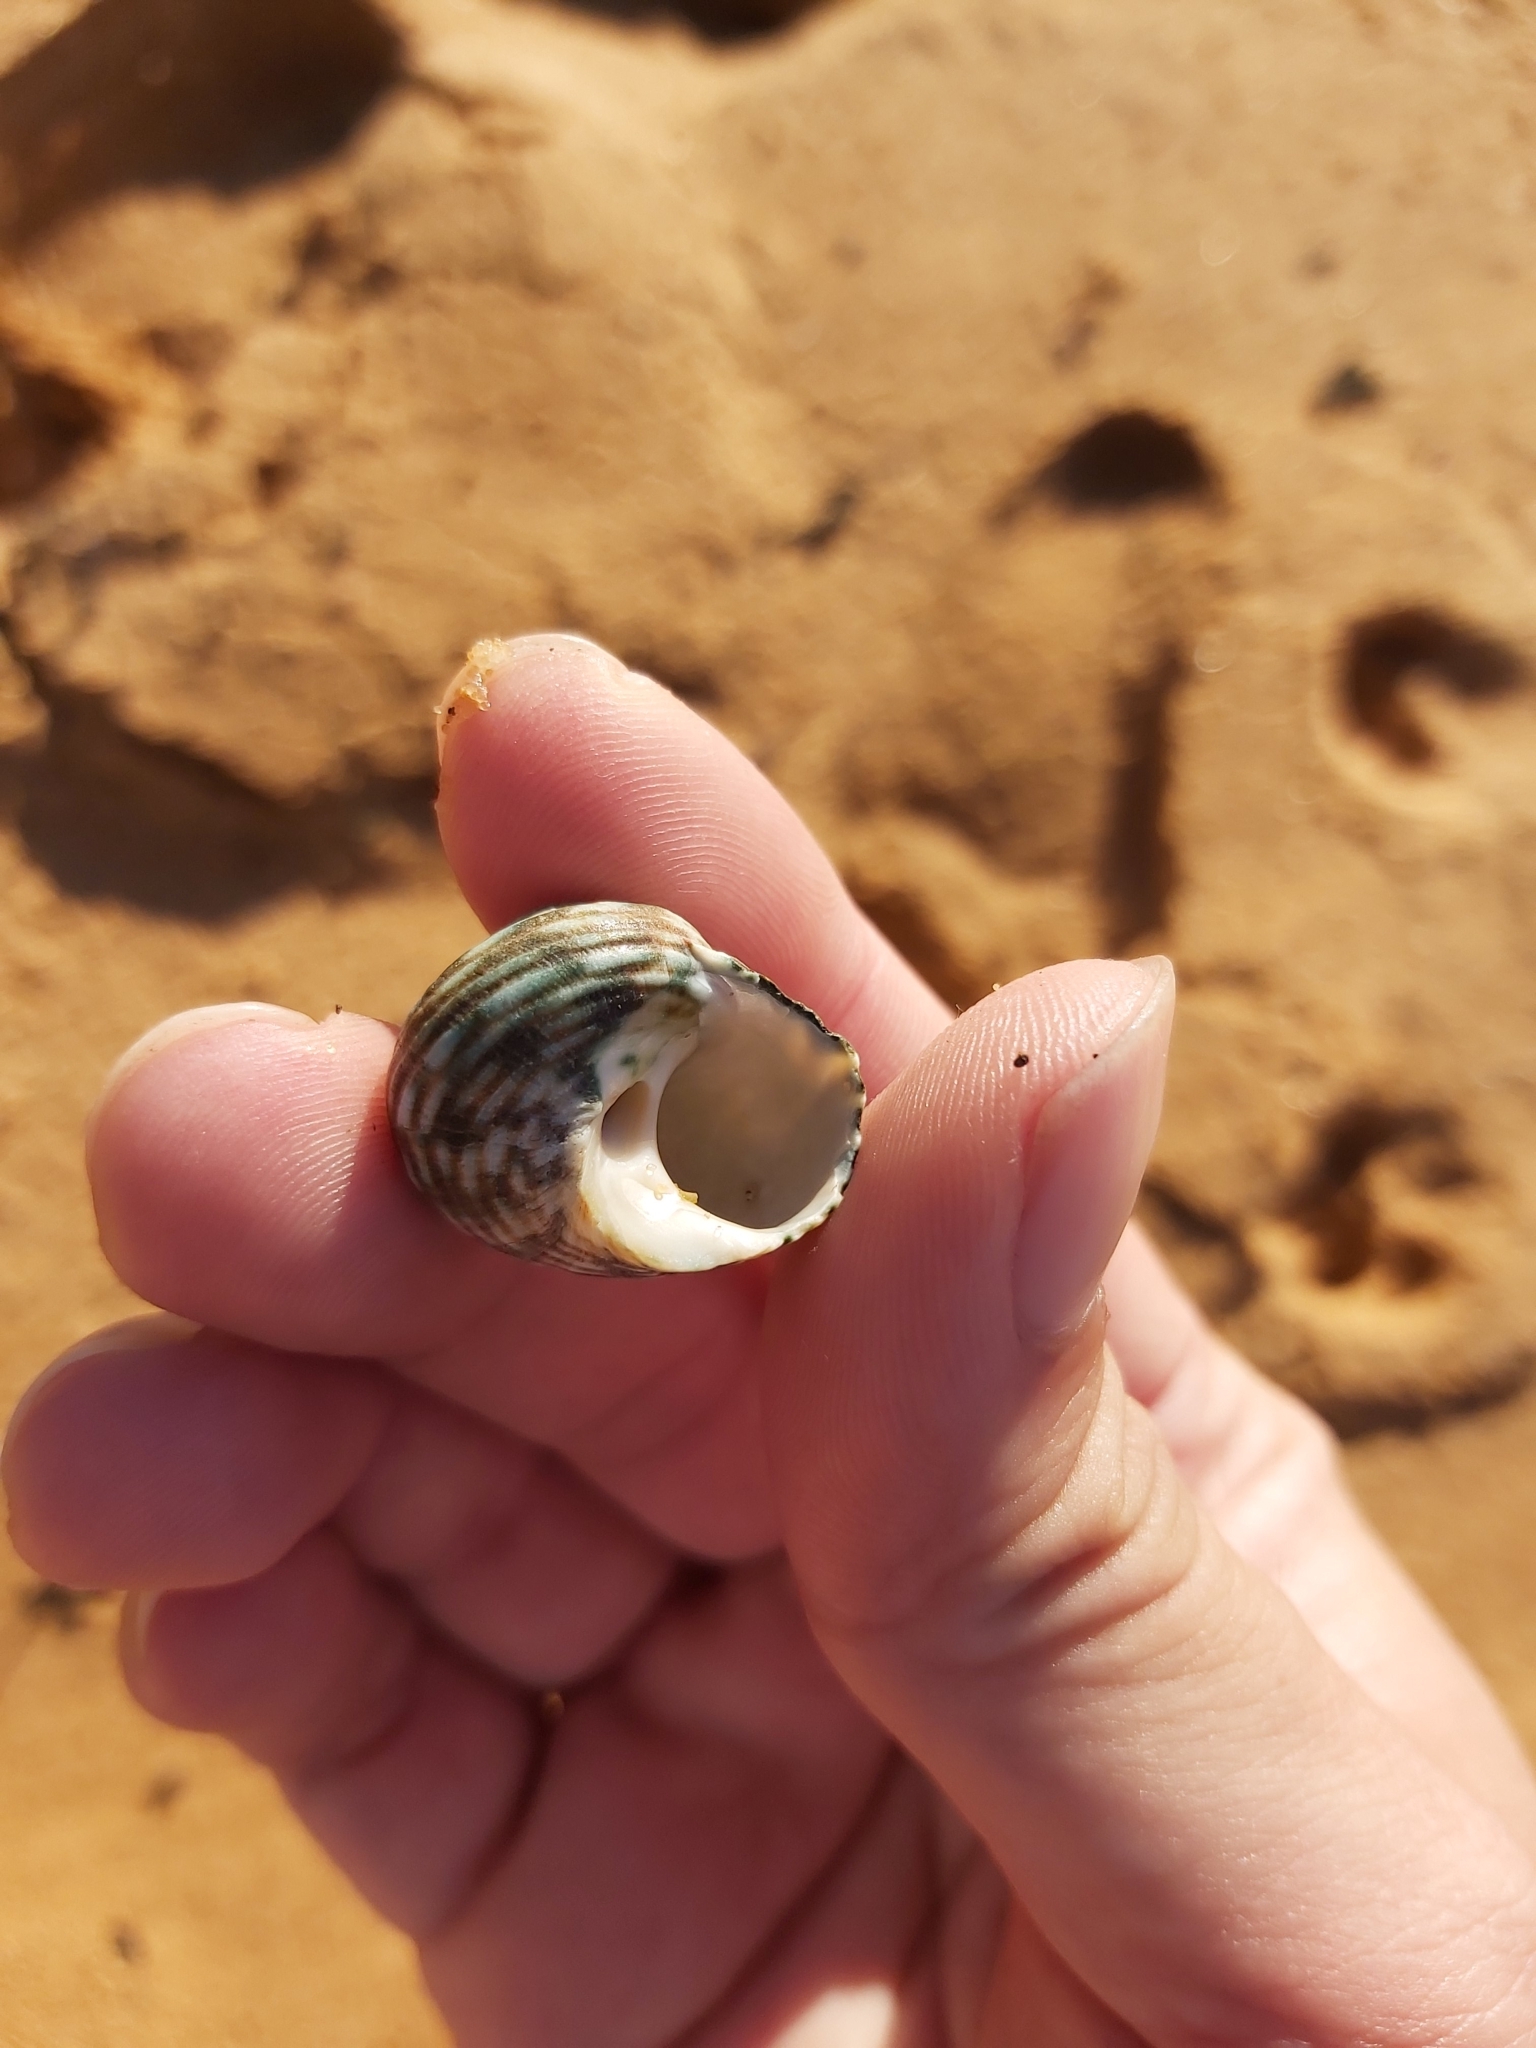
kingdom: Animalia
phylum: Mollusca
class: Gastropoda
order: Trochida
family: Turbinidae
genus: Lunella
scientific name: Lunella undulata
